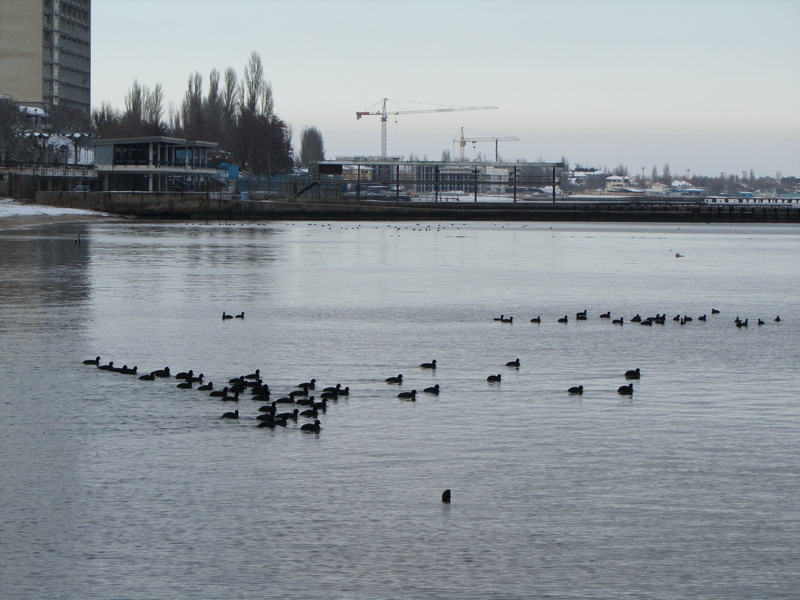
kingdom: Animalia
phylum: Chordata
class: Aves
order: Gruiformes
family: Rallidae
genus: Fulica
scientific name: Fulica atra
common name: Eurasian coot
